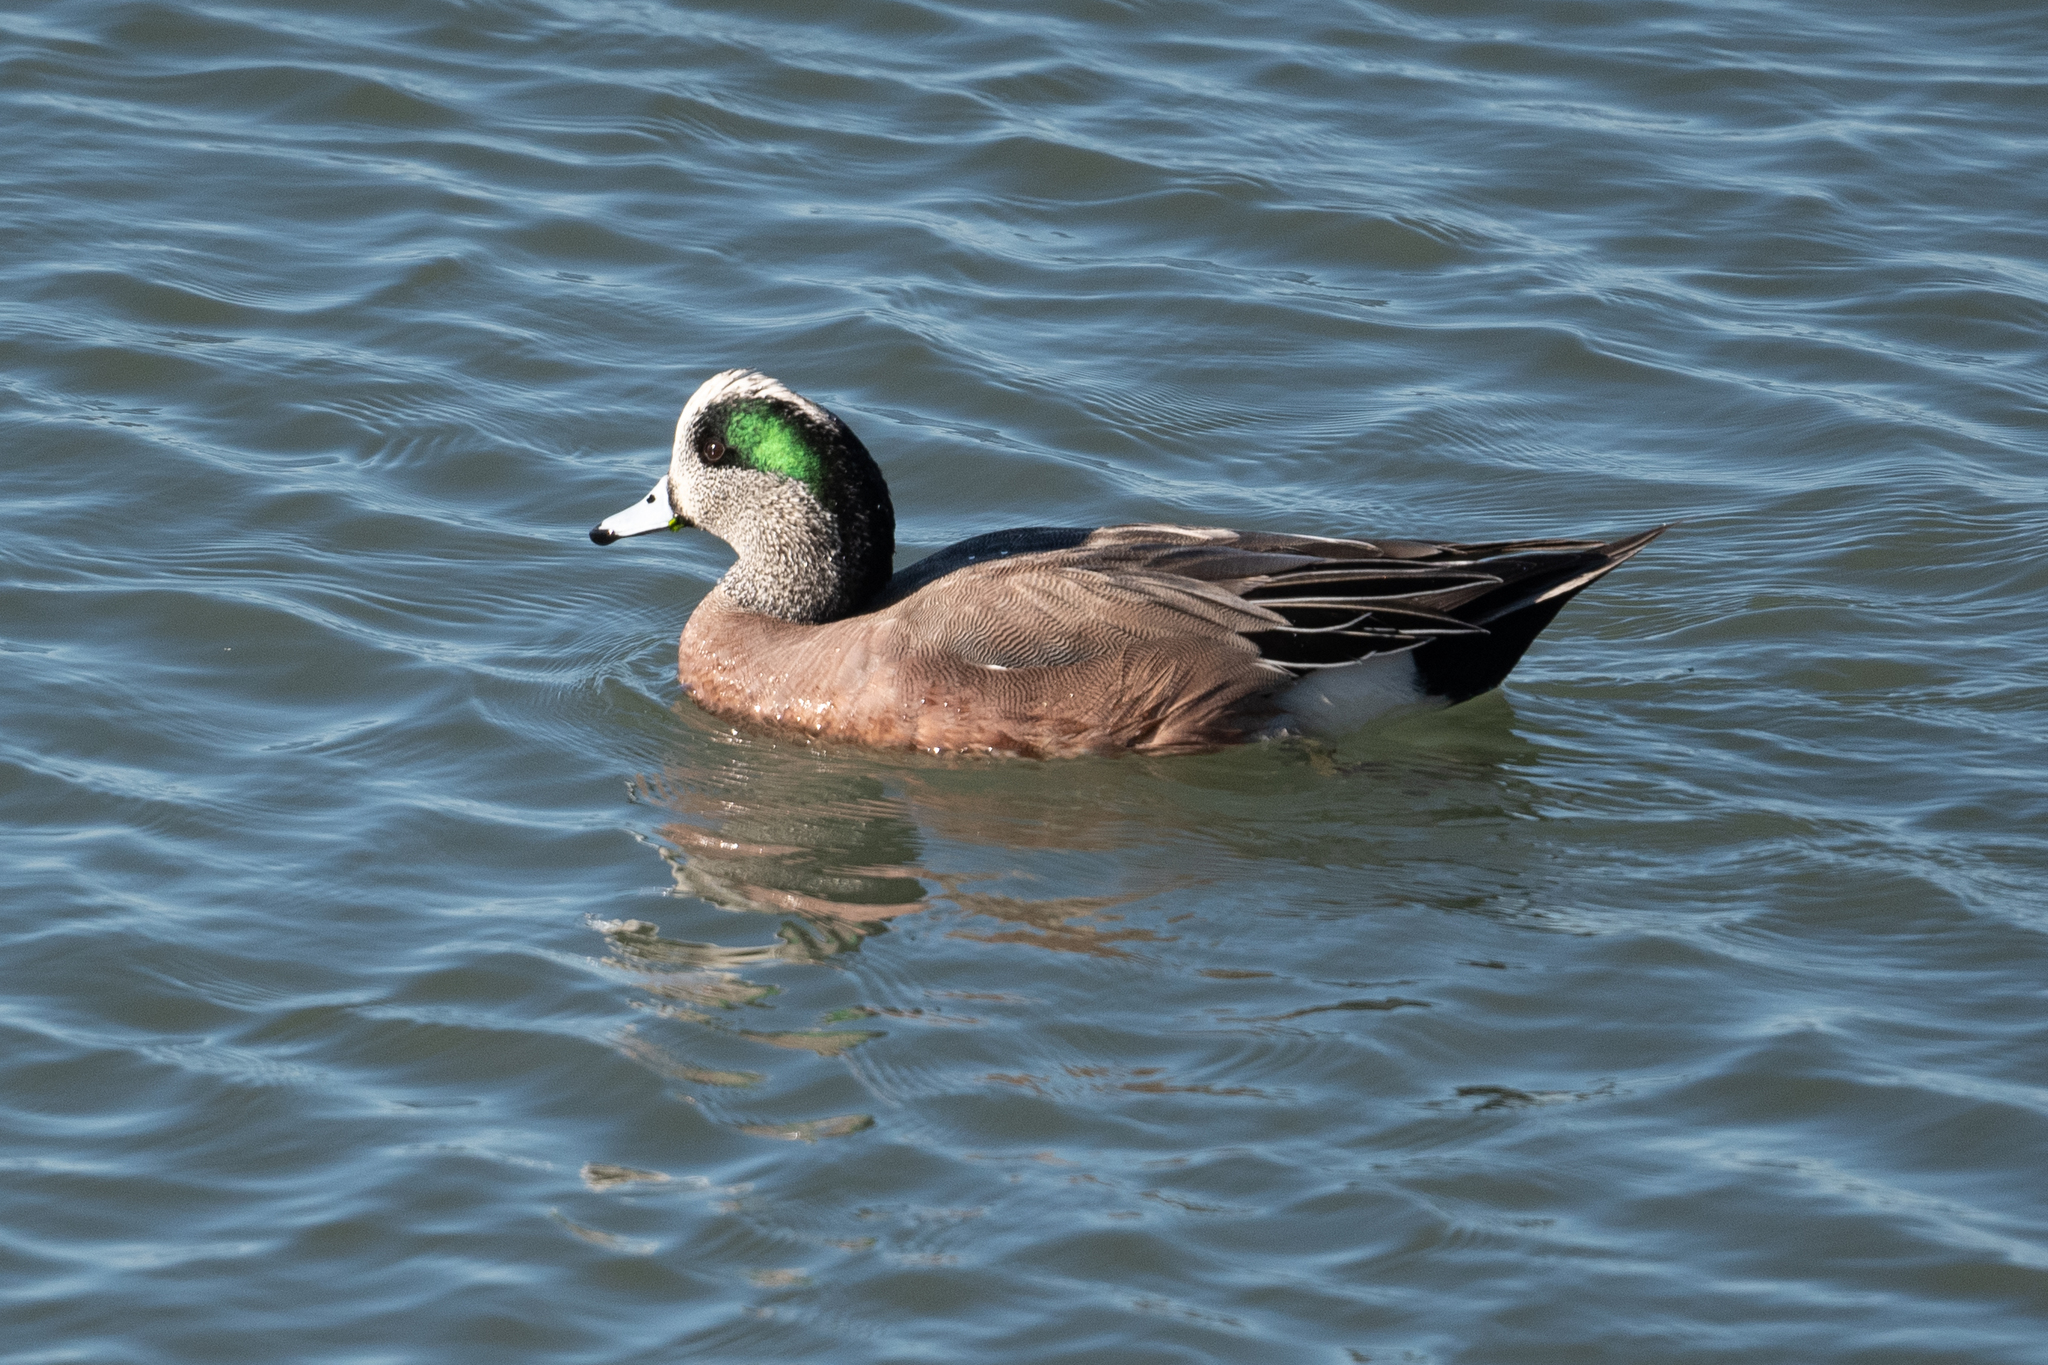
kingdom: Animalia
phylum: Chordata
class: Aves
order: Anseriformes
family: Anatidae
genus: Mareca
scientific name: Mareca americana
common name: American wigeon
